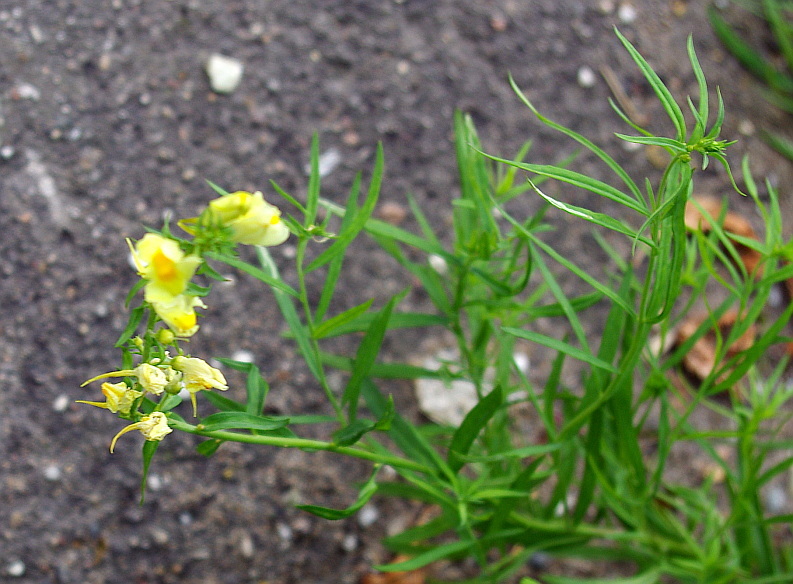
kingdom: Plantae
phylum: Tracheophyta
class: Magnoliopsida
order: Lamiales
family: Plantaginaceae
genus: Linaria
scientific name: Linaria vulgaris
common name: Butter and eggs
